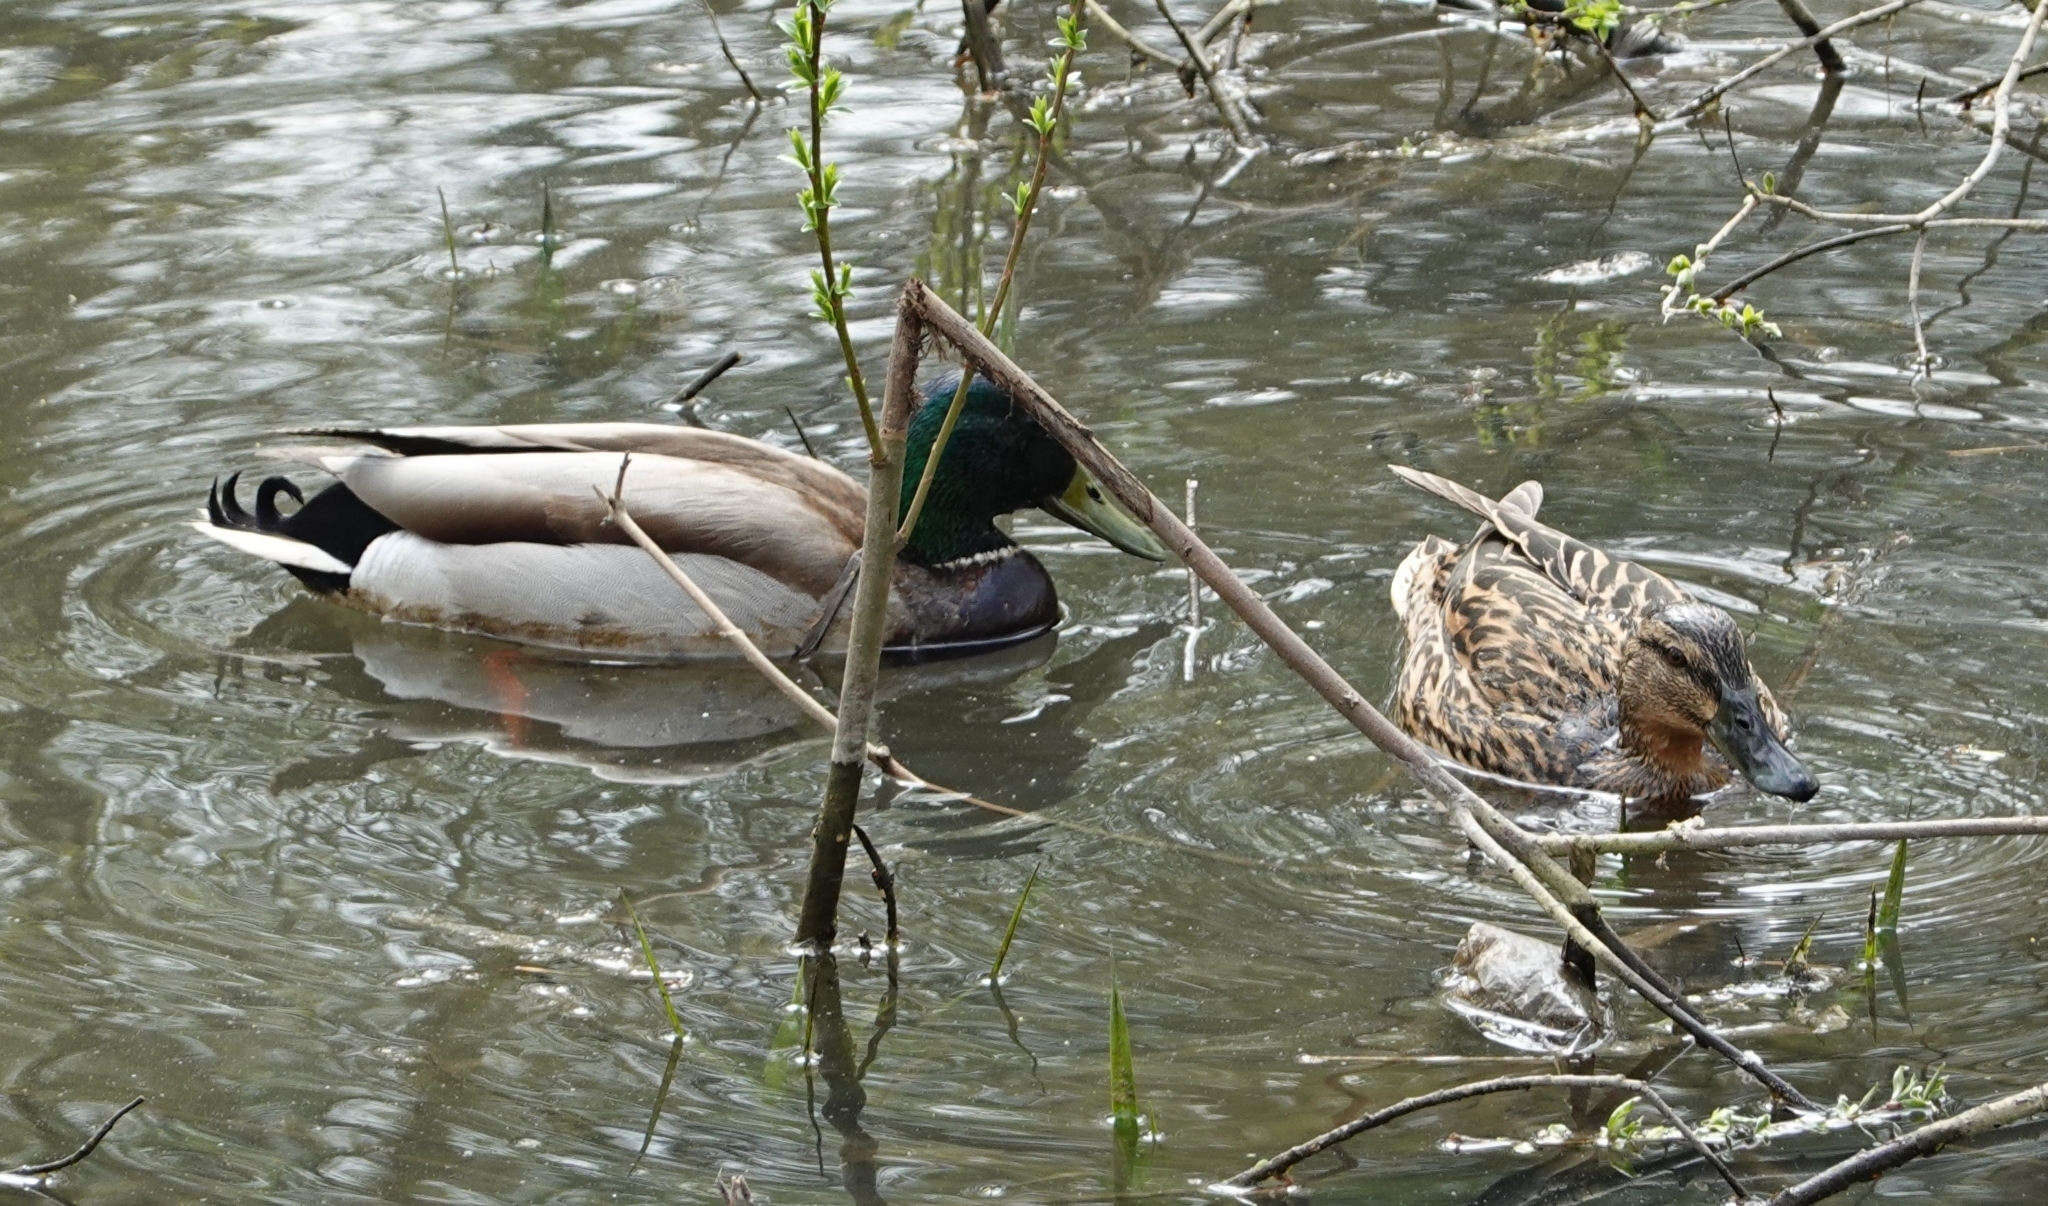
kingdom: Animalia
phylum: Chordata
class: Aves
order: Anseriformes
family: Anatidae
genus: Anas
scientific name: Anas platyrhynchos
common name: Mallard
